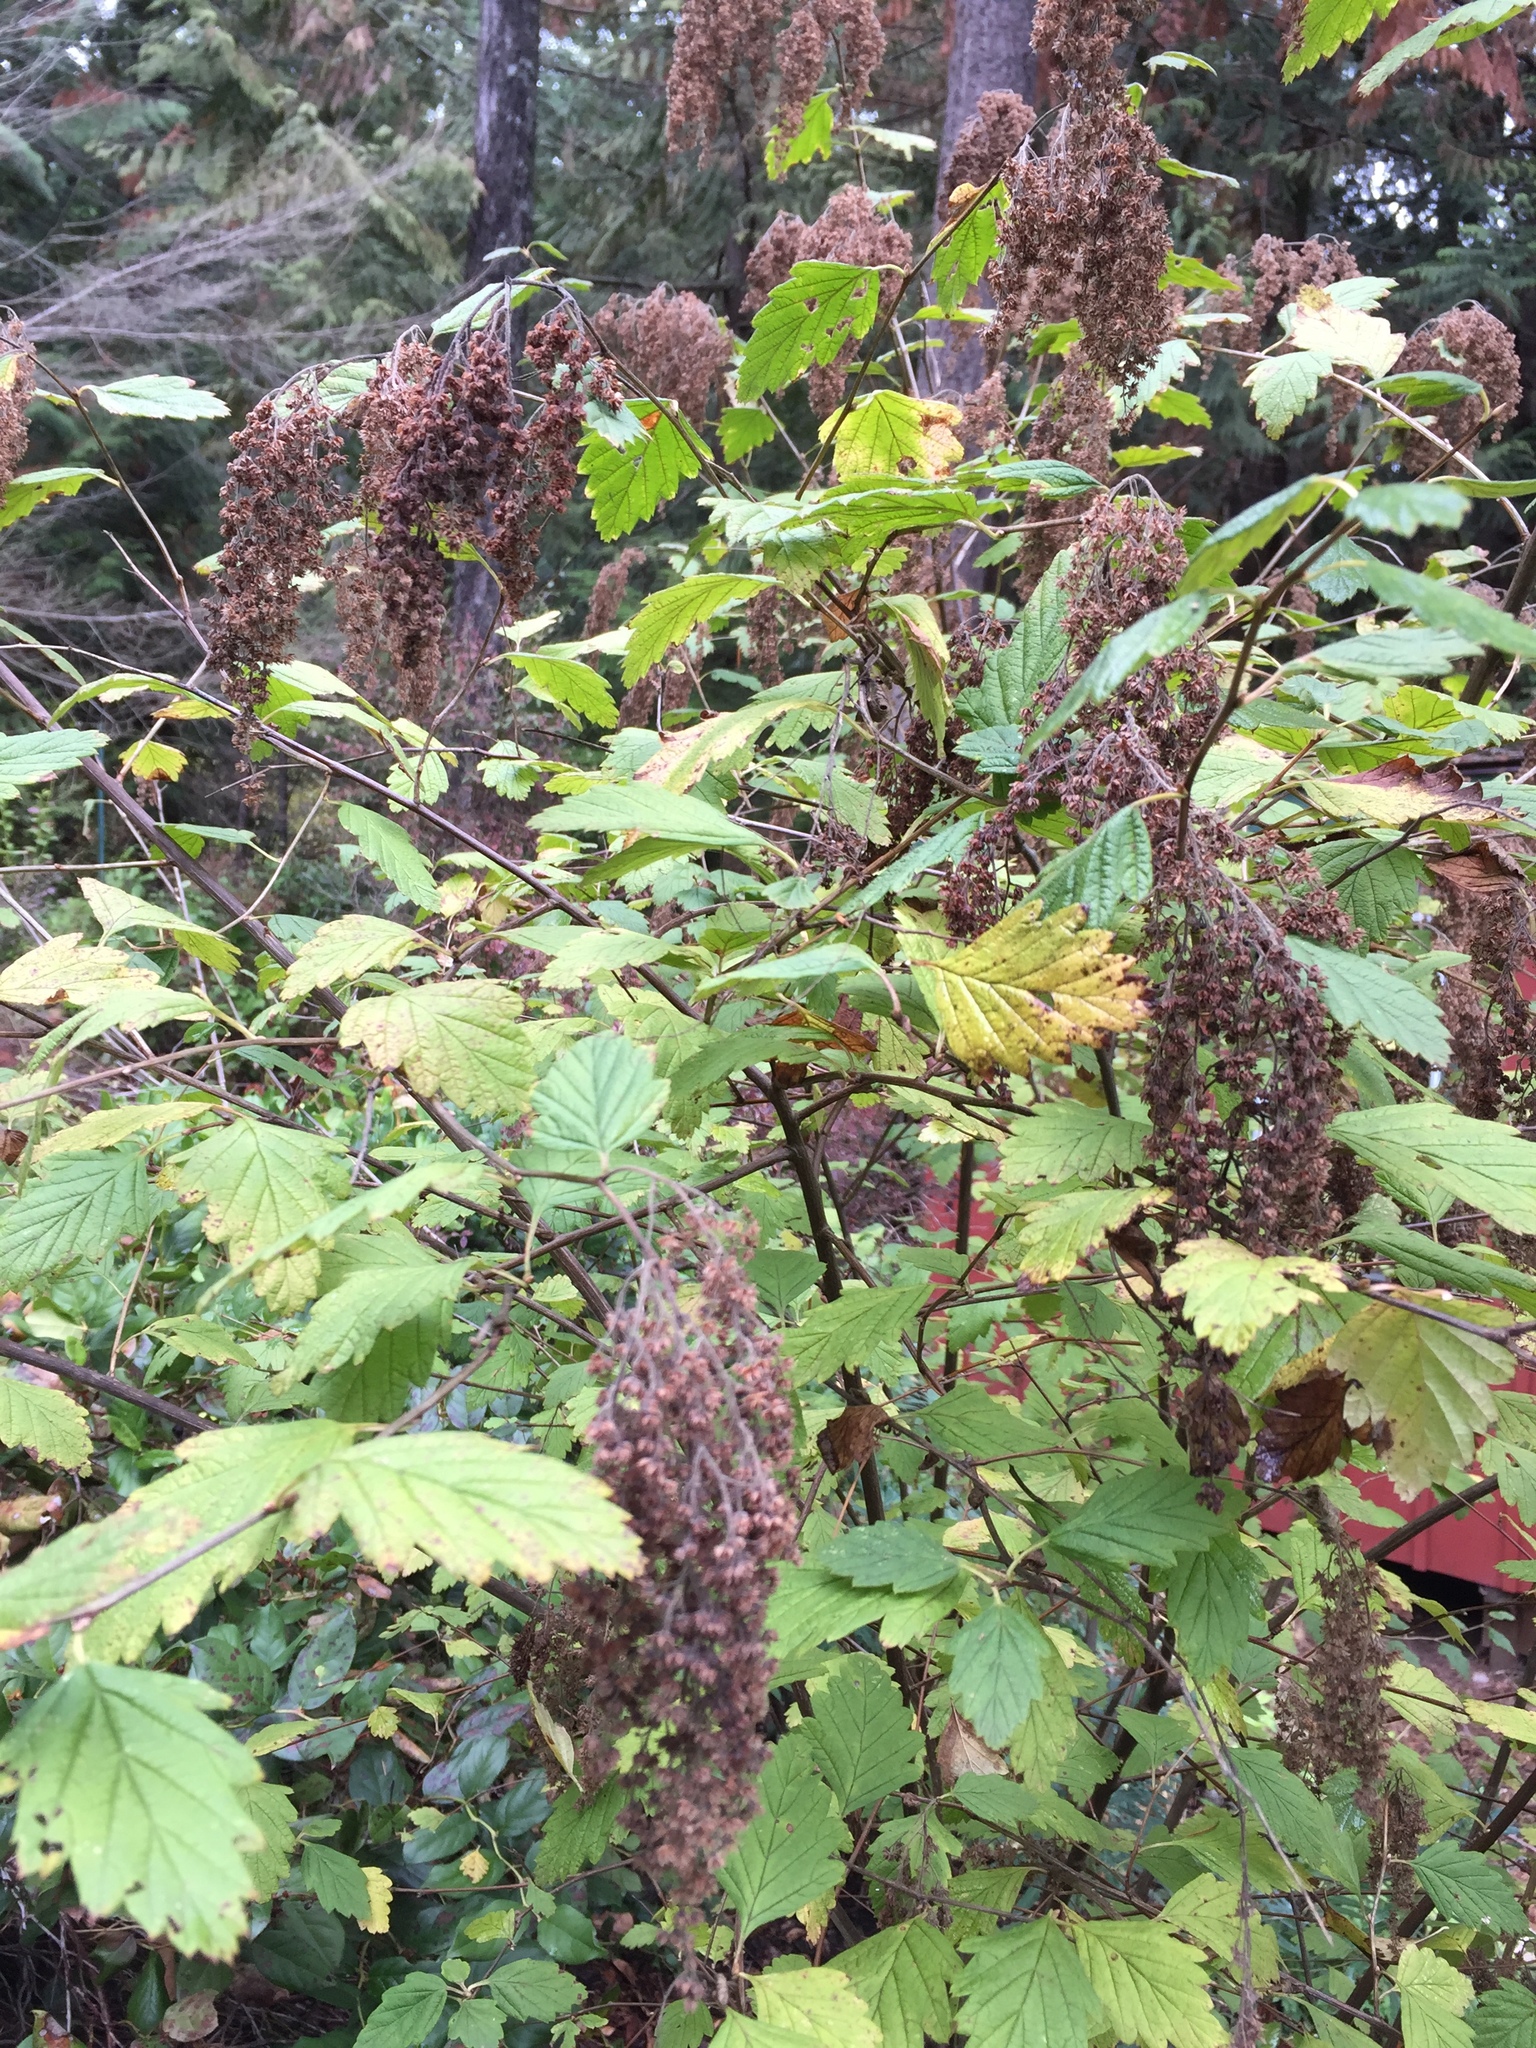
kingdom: Plantae
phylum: Tracheophyta
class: Magnoliopsida
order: Rosales
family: Rosaceae
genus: Holodiscus
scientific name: Holodiscus discolor
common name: Oceanspray
